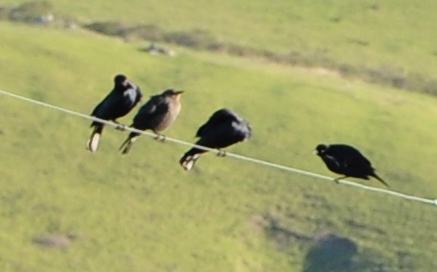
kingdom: Animalia
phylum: Chordata
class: Aves
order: Passeriformes
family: Icteridae
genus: Euphagus
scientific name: Euphagus cyanocephalus
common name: Brewer's blackbird
